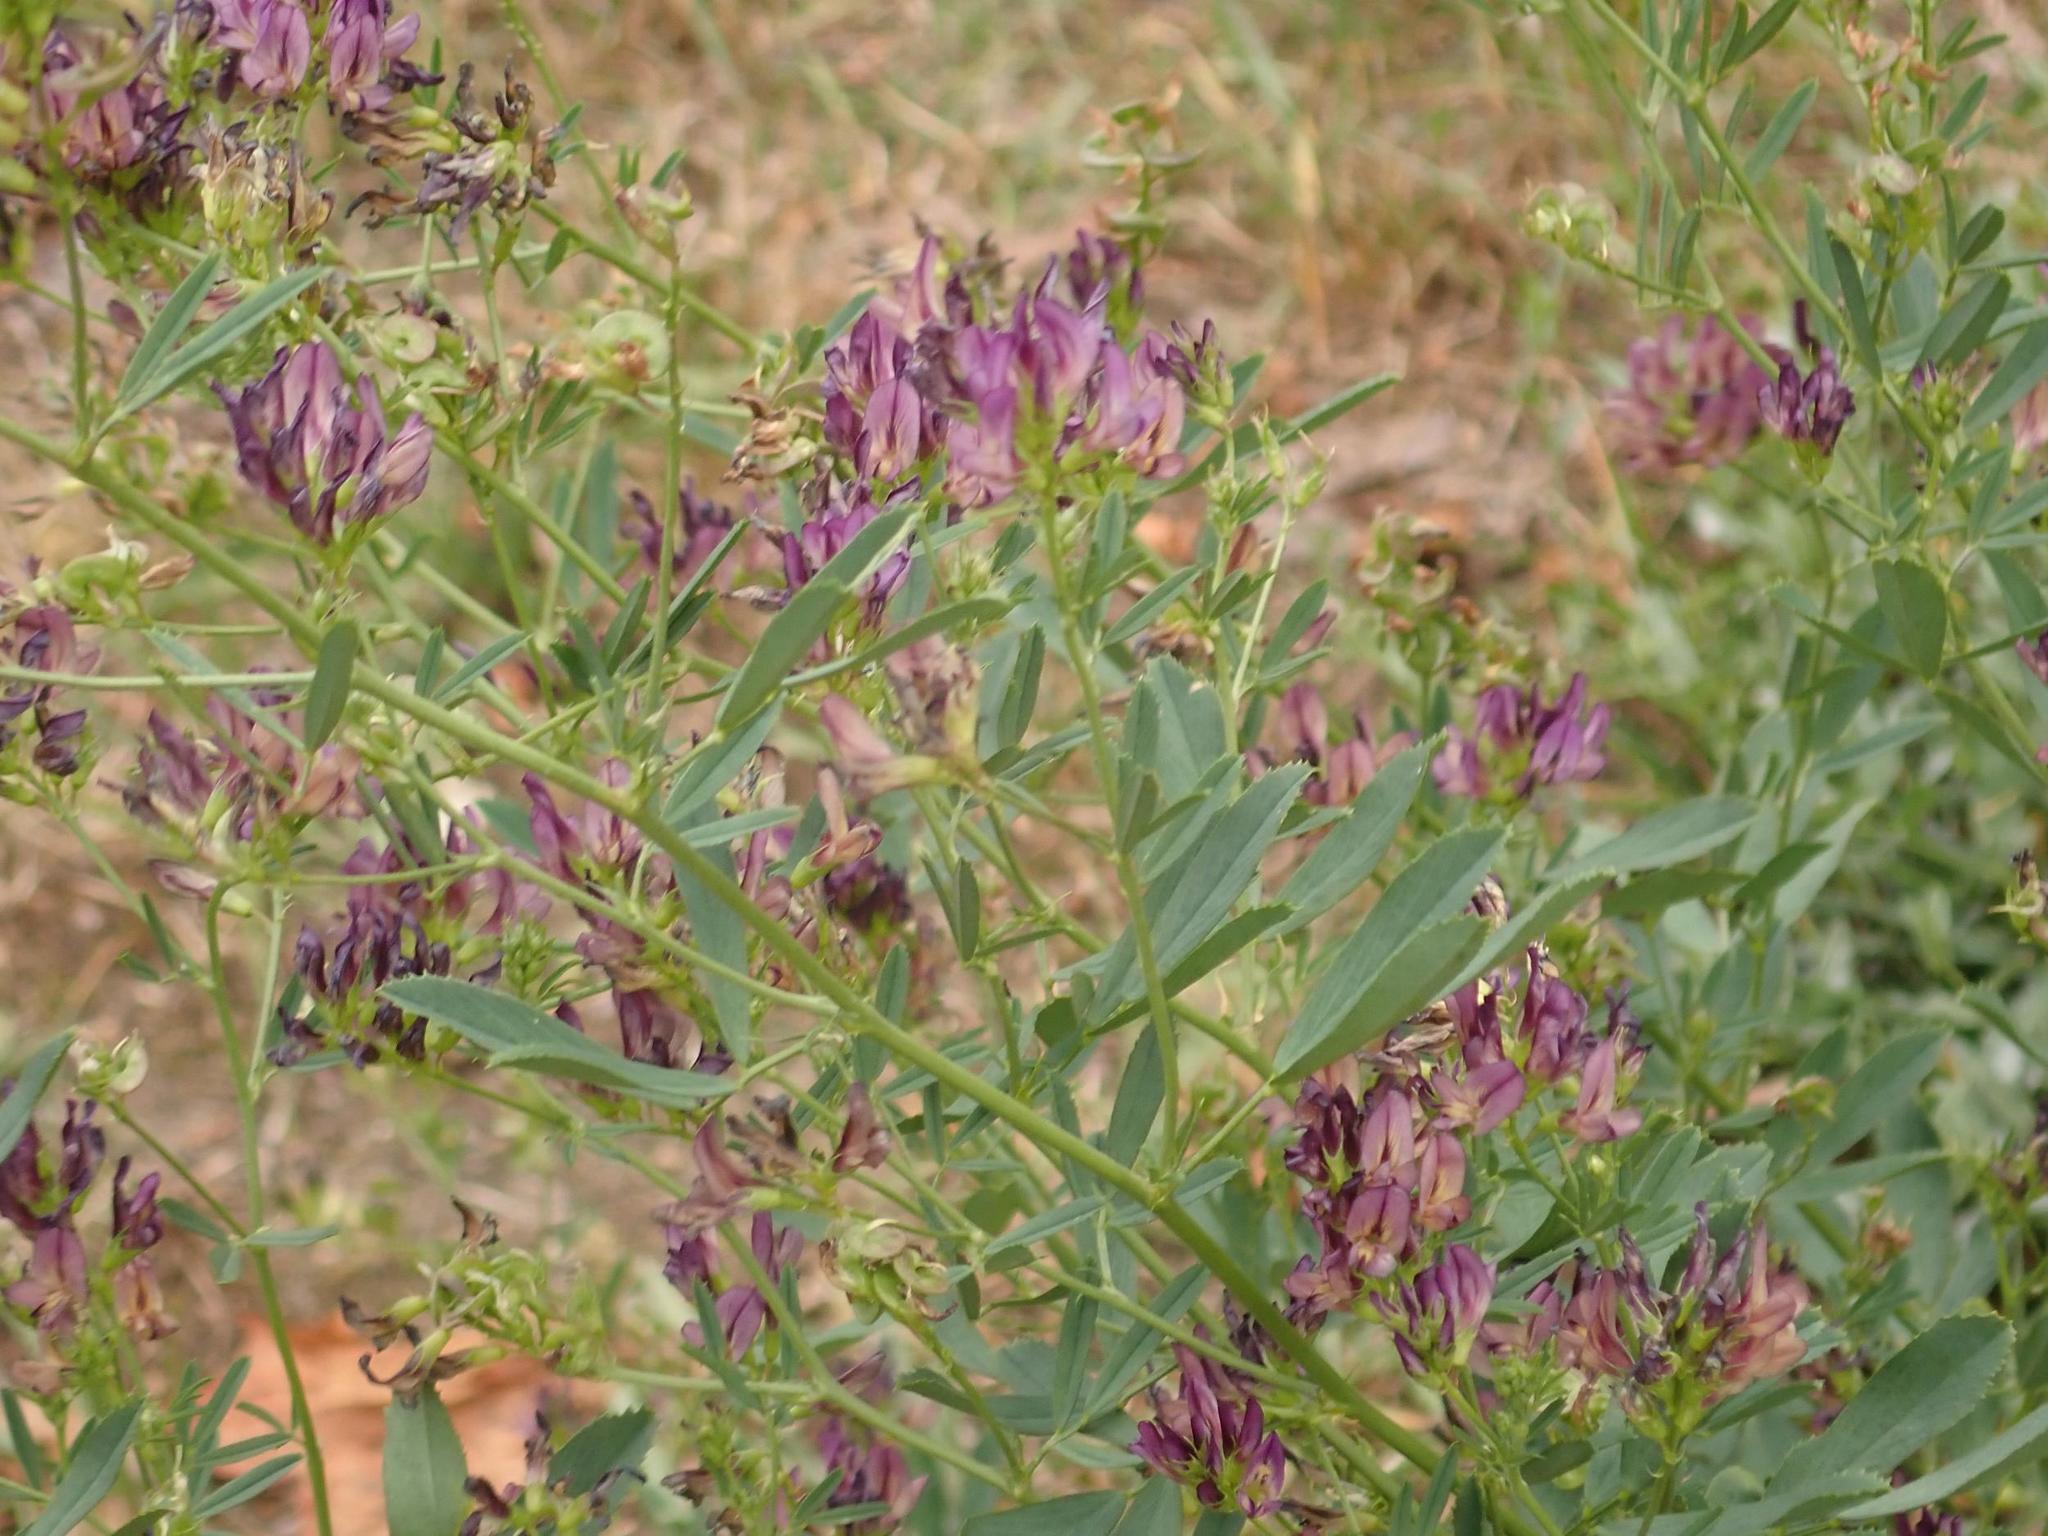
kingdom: Plantae
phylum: Tracheophyta
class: Magnoliopsida
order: Fabales
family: Fabaceae
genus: Medicago
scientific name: Medicago varia
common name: Sand lucerne
